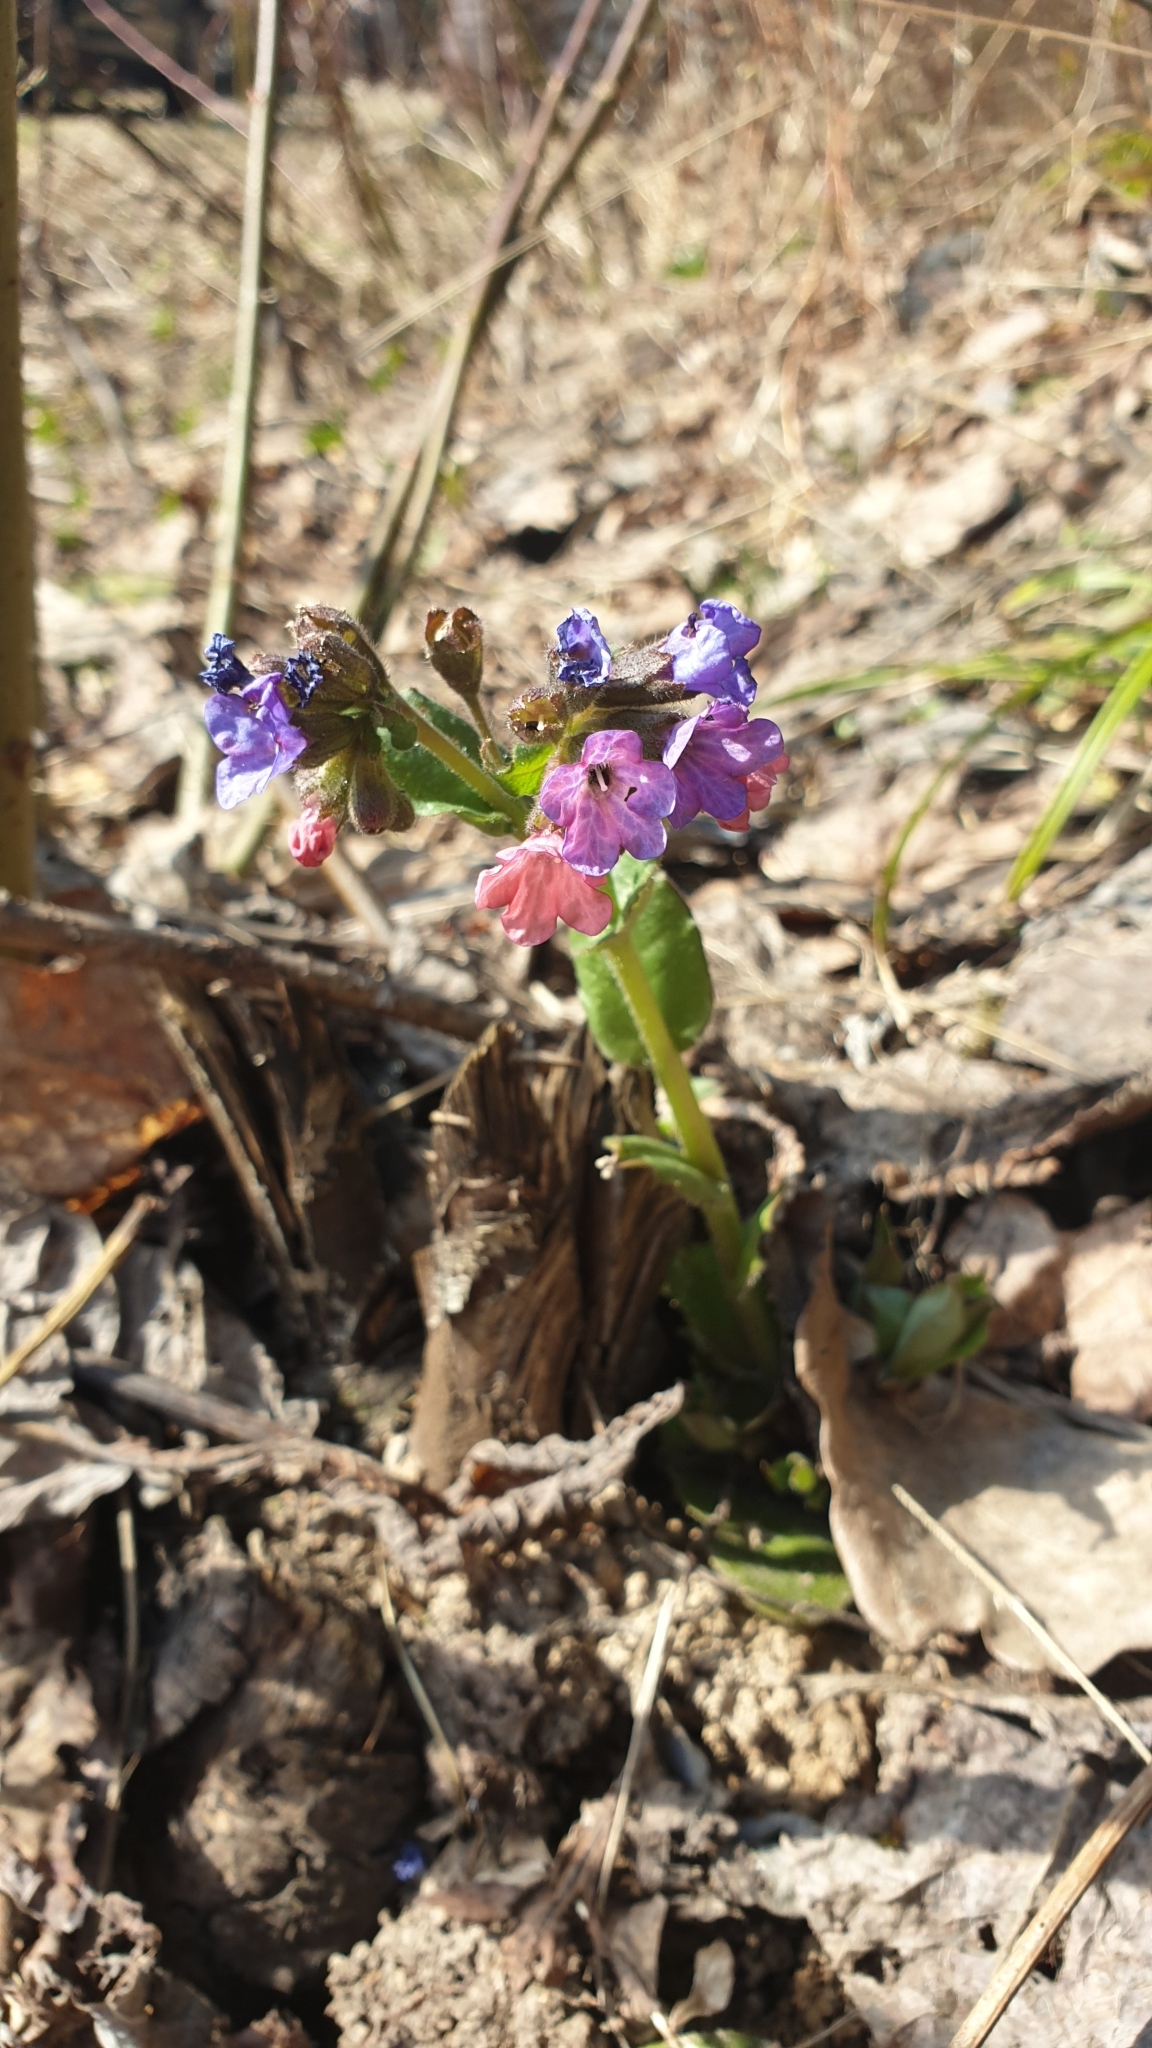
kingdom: Plantae
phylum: Tracheophyta
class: Magnoliopsida
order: Boraginales
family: Boraginaceae
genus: Pulmonaria
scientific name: Pulmonaria obscura
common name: Suffolk lungwort
